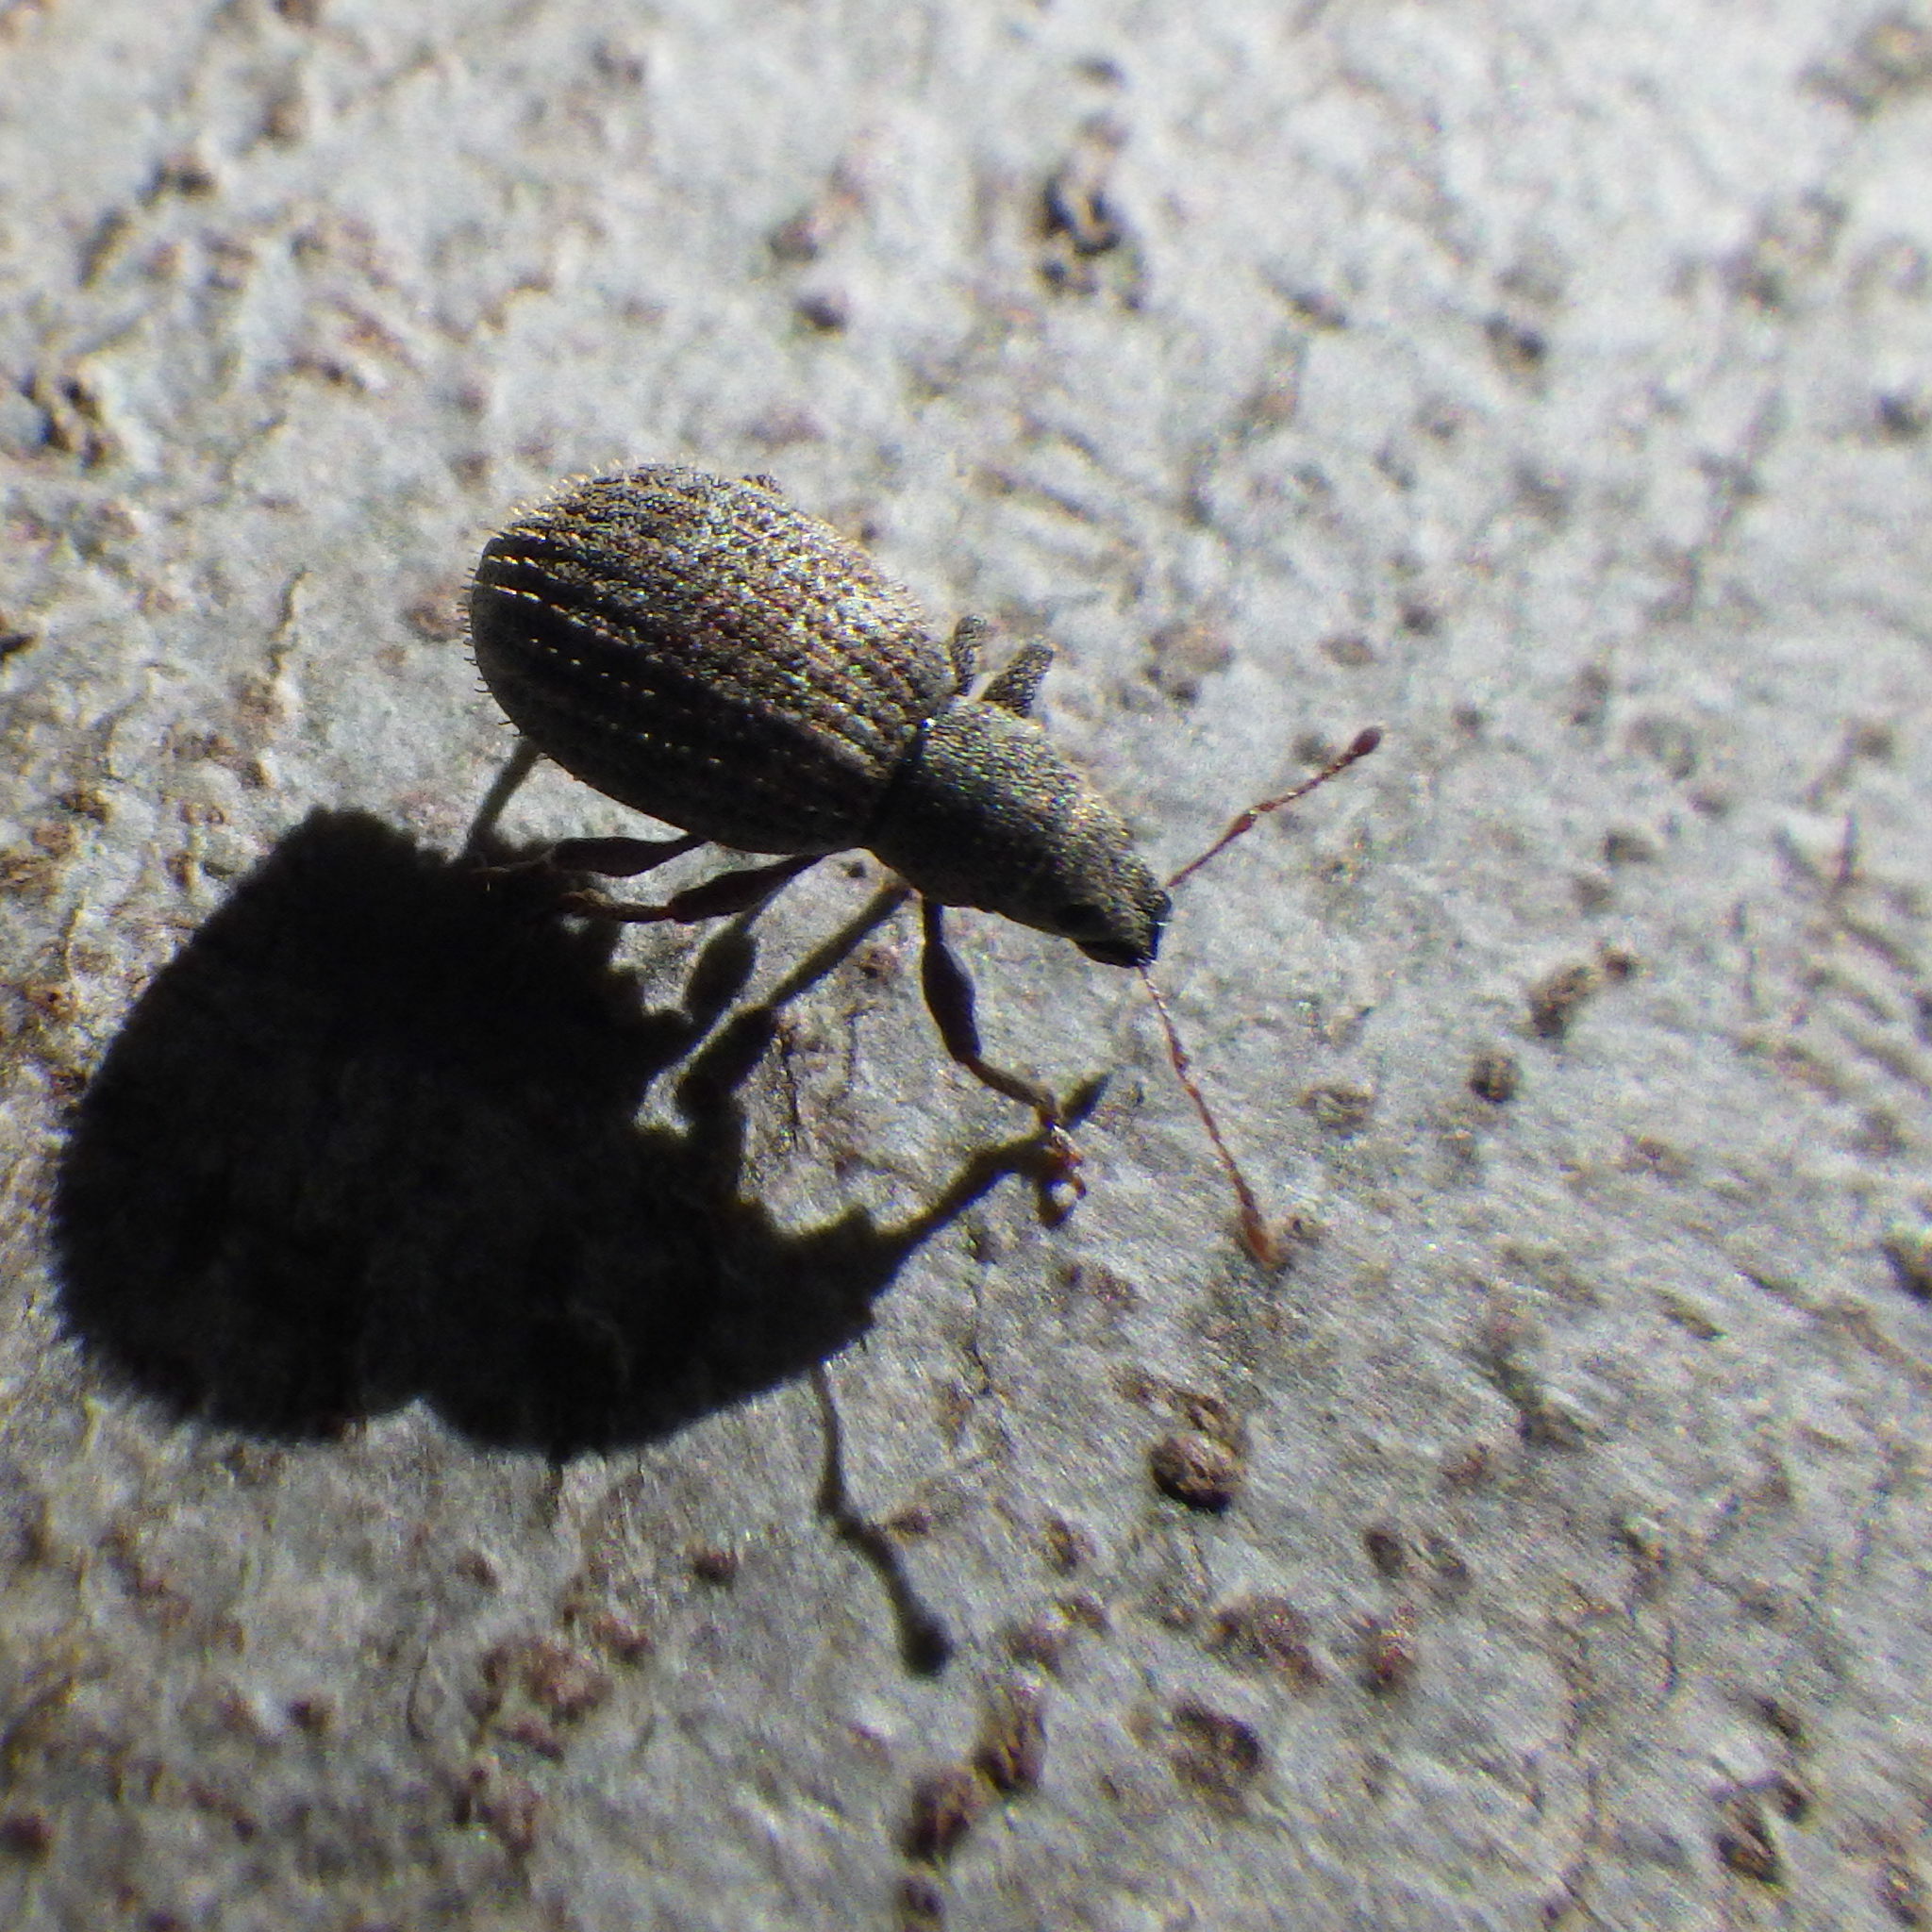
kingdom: Animalia
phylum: Arthropoda
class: Insecta
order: Coleoptera
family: Curculionidae
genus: Sciaphilus
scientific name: Sciaphilus asperatus
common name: Weevil
